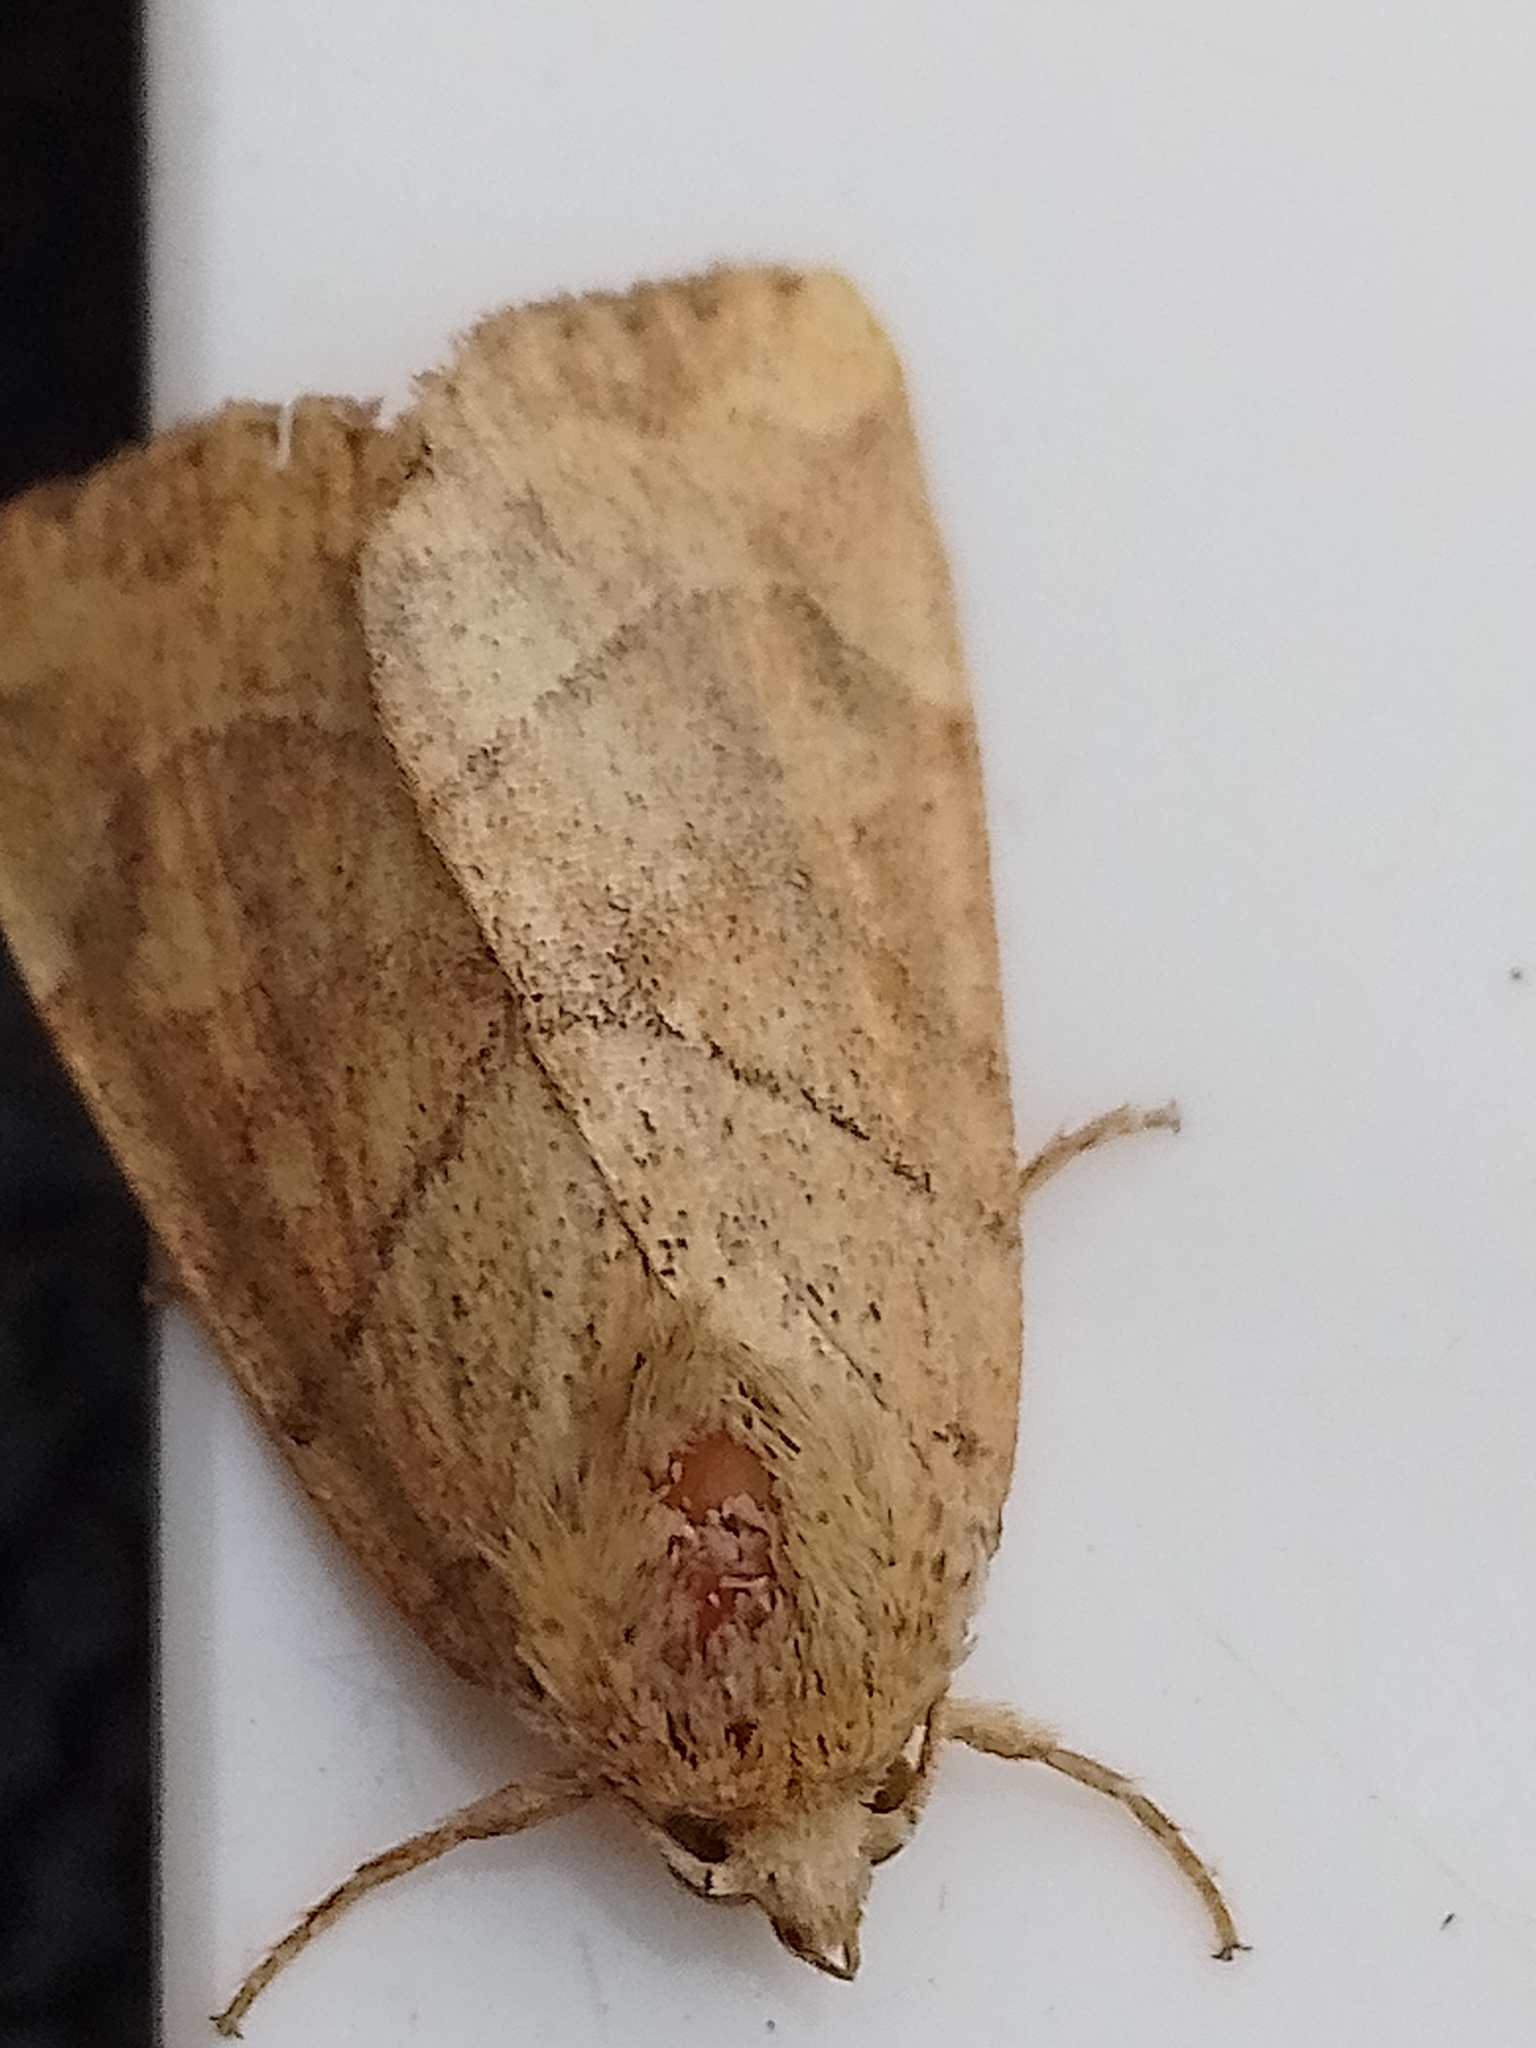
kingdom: Animalia
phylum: Arthropoda
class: Insecta
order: Lepidoptera
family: Noctuidae
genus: Cosmia
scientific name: Cosmia trapezina
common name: Dun-bar
